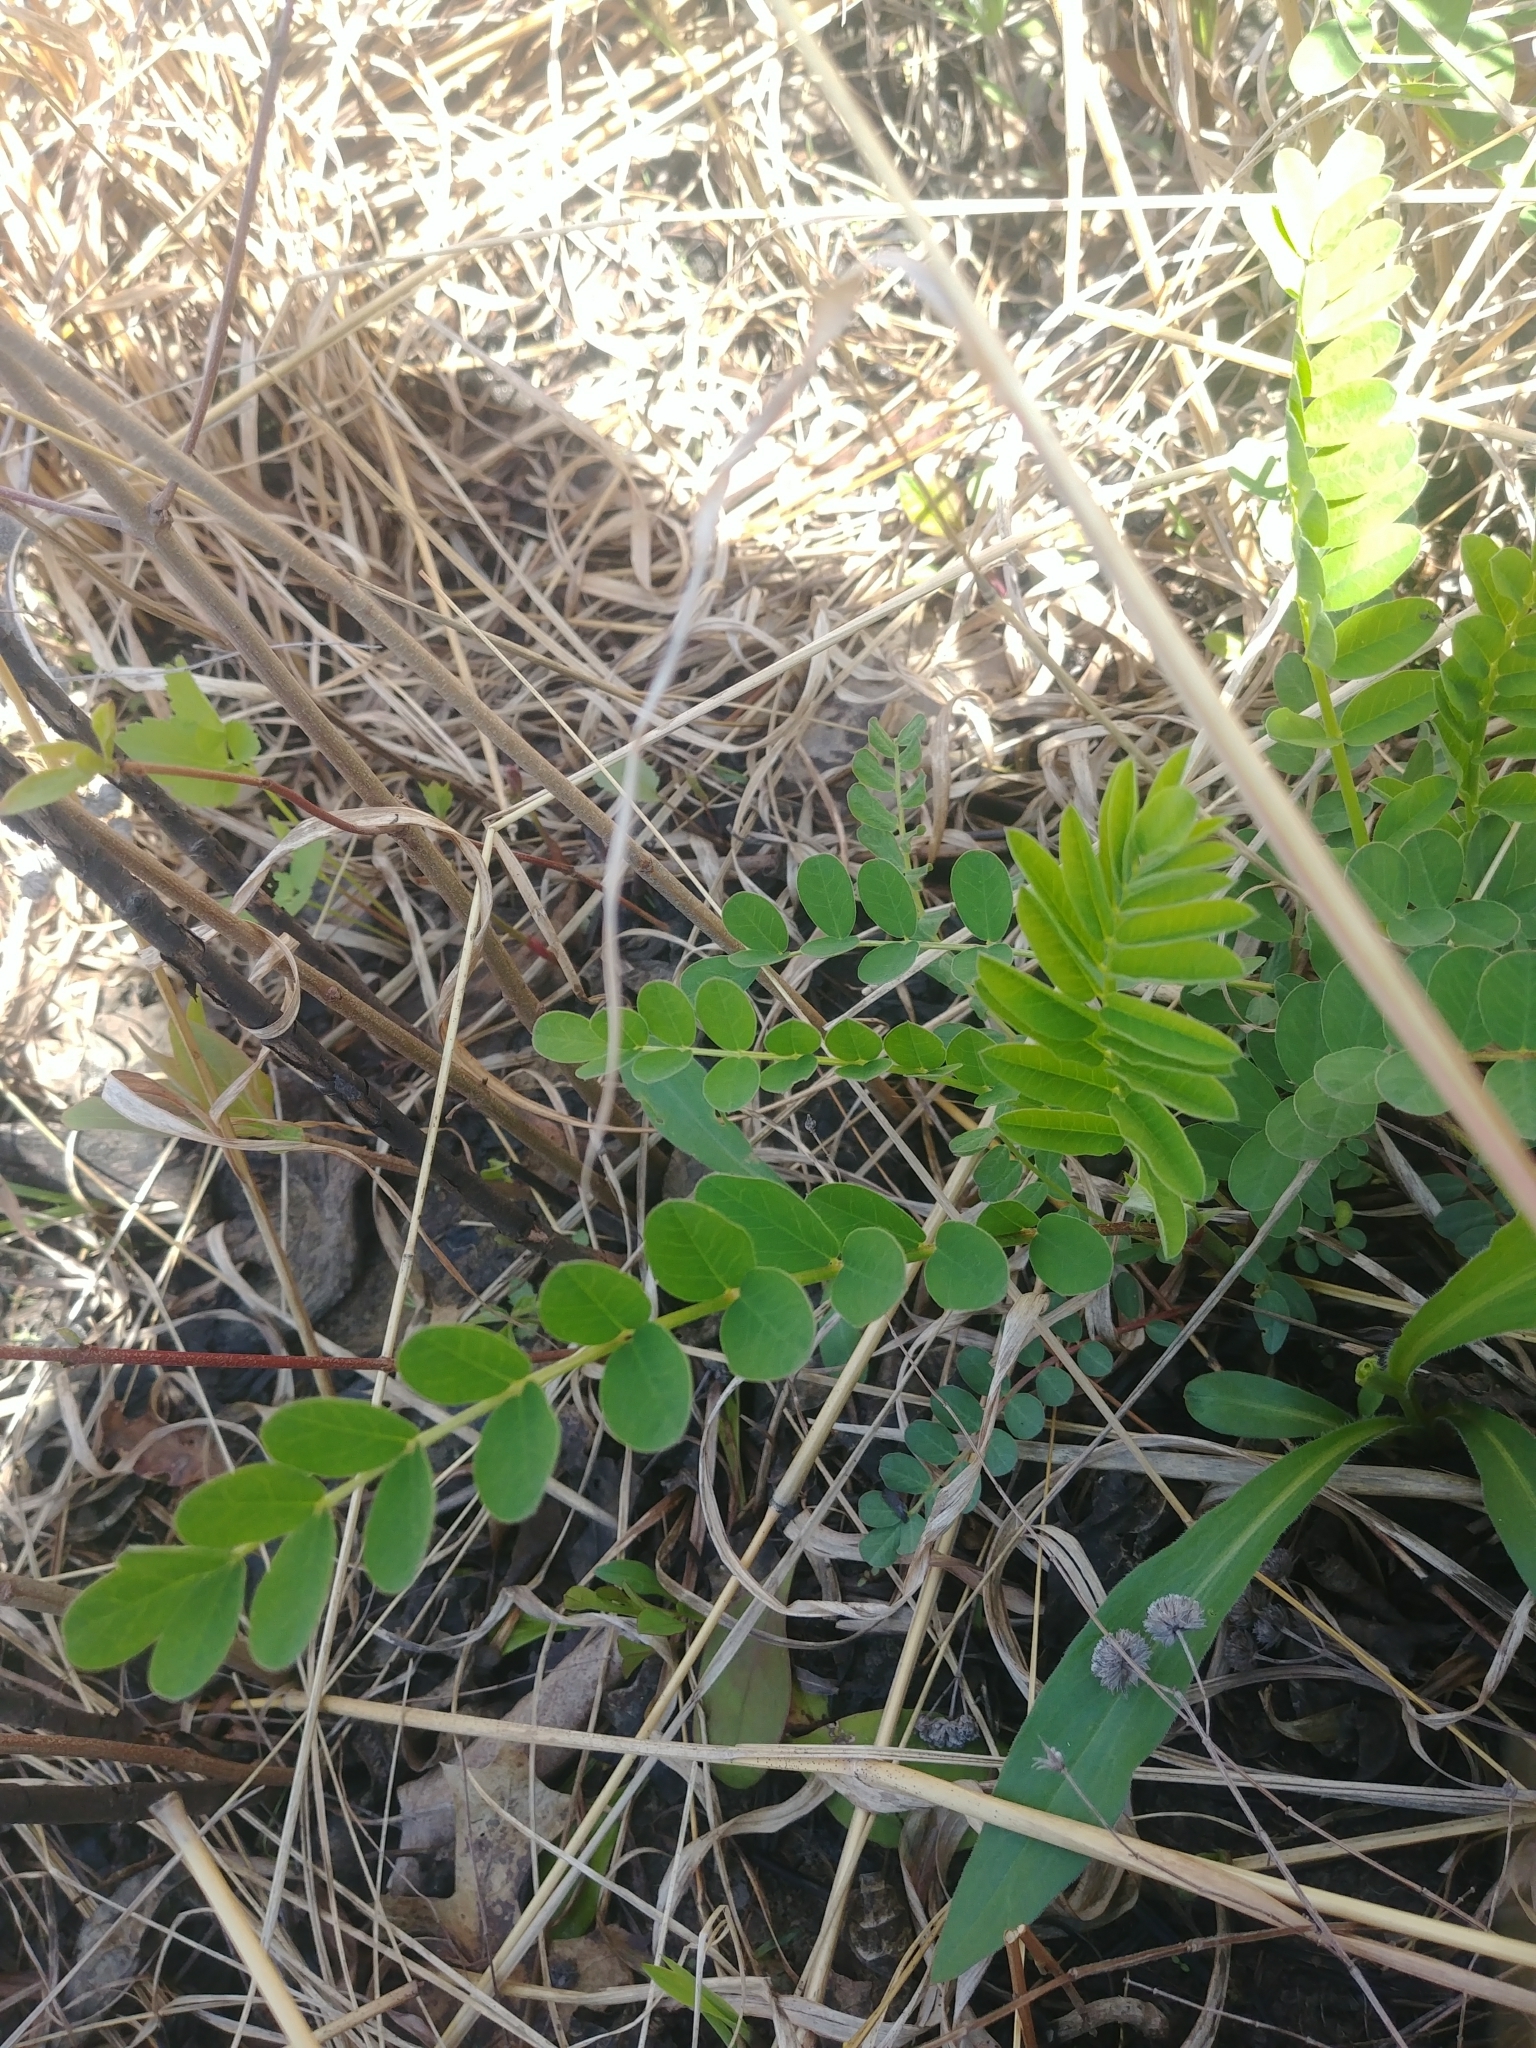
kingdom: Plantae
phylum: Tracheophyta
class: Magnoliopsida
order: Fabales
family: Fabaceae
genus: Coronilla
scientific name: Coronilla varia
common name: Crownvetch
